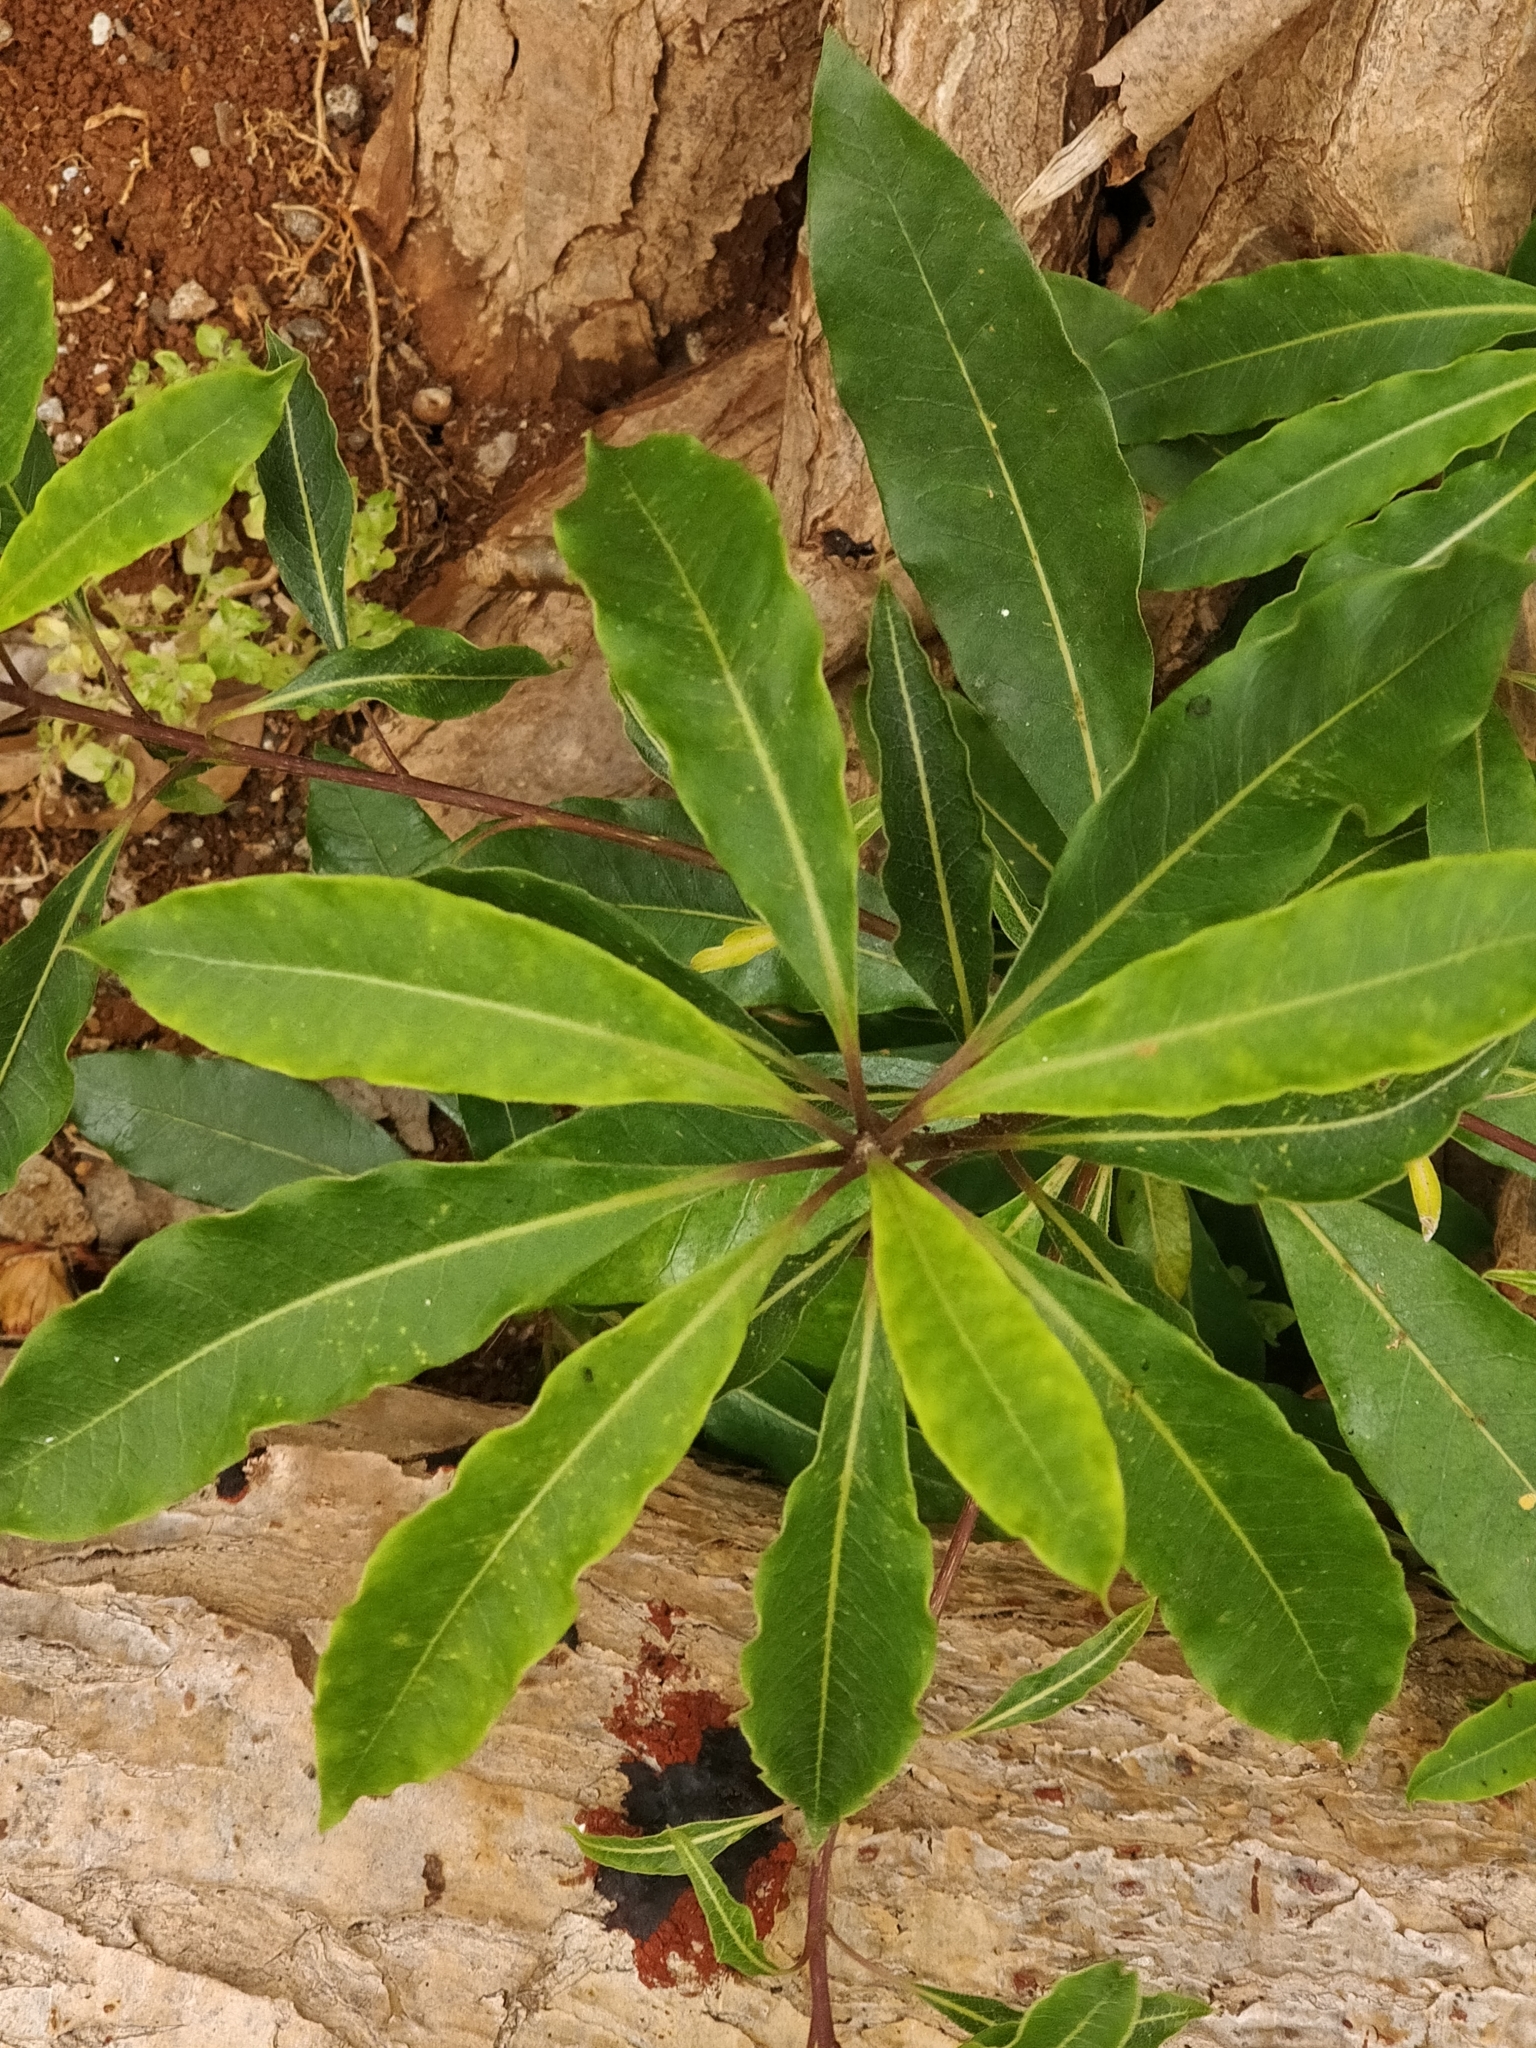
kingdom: Plantae
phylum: Tracheophyta
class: Magnoliopsida
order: Apiales
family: Pittosporaceae
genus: Pittosporum
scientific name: Pittosporum undulatum
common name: Australian cheesewood
